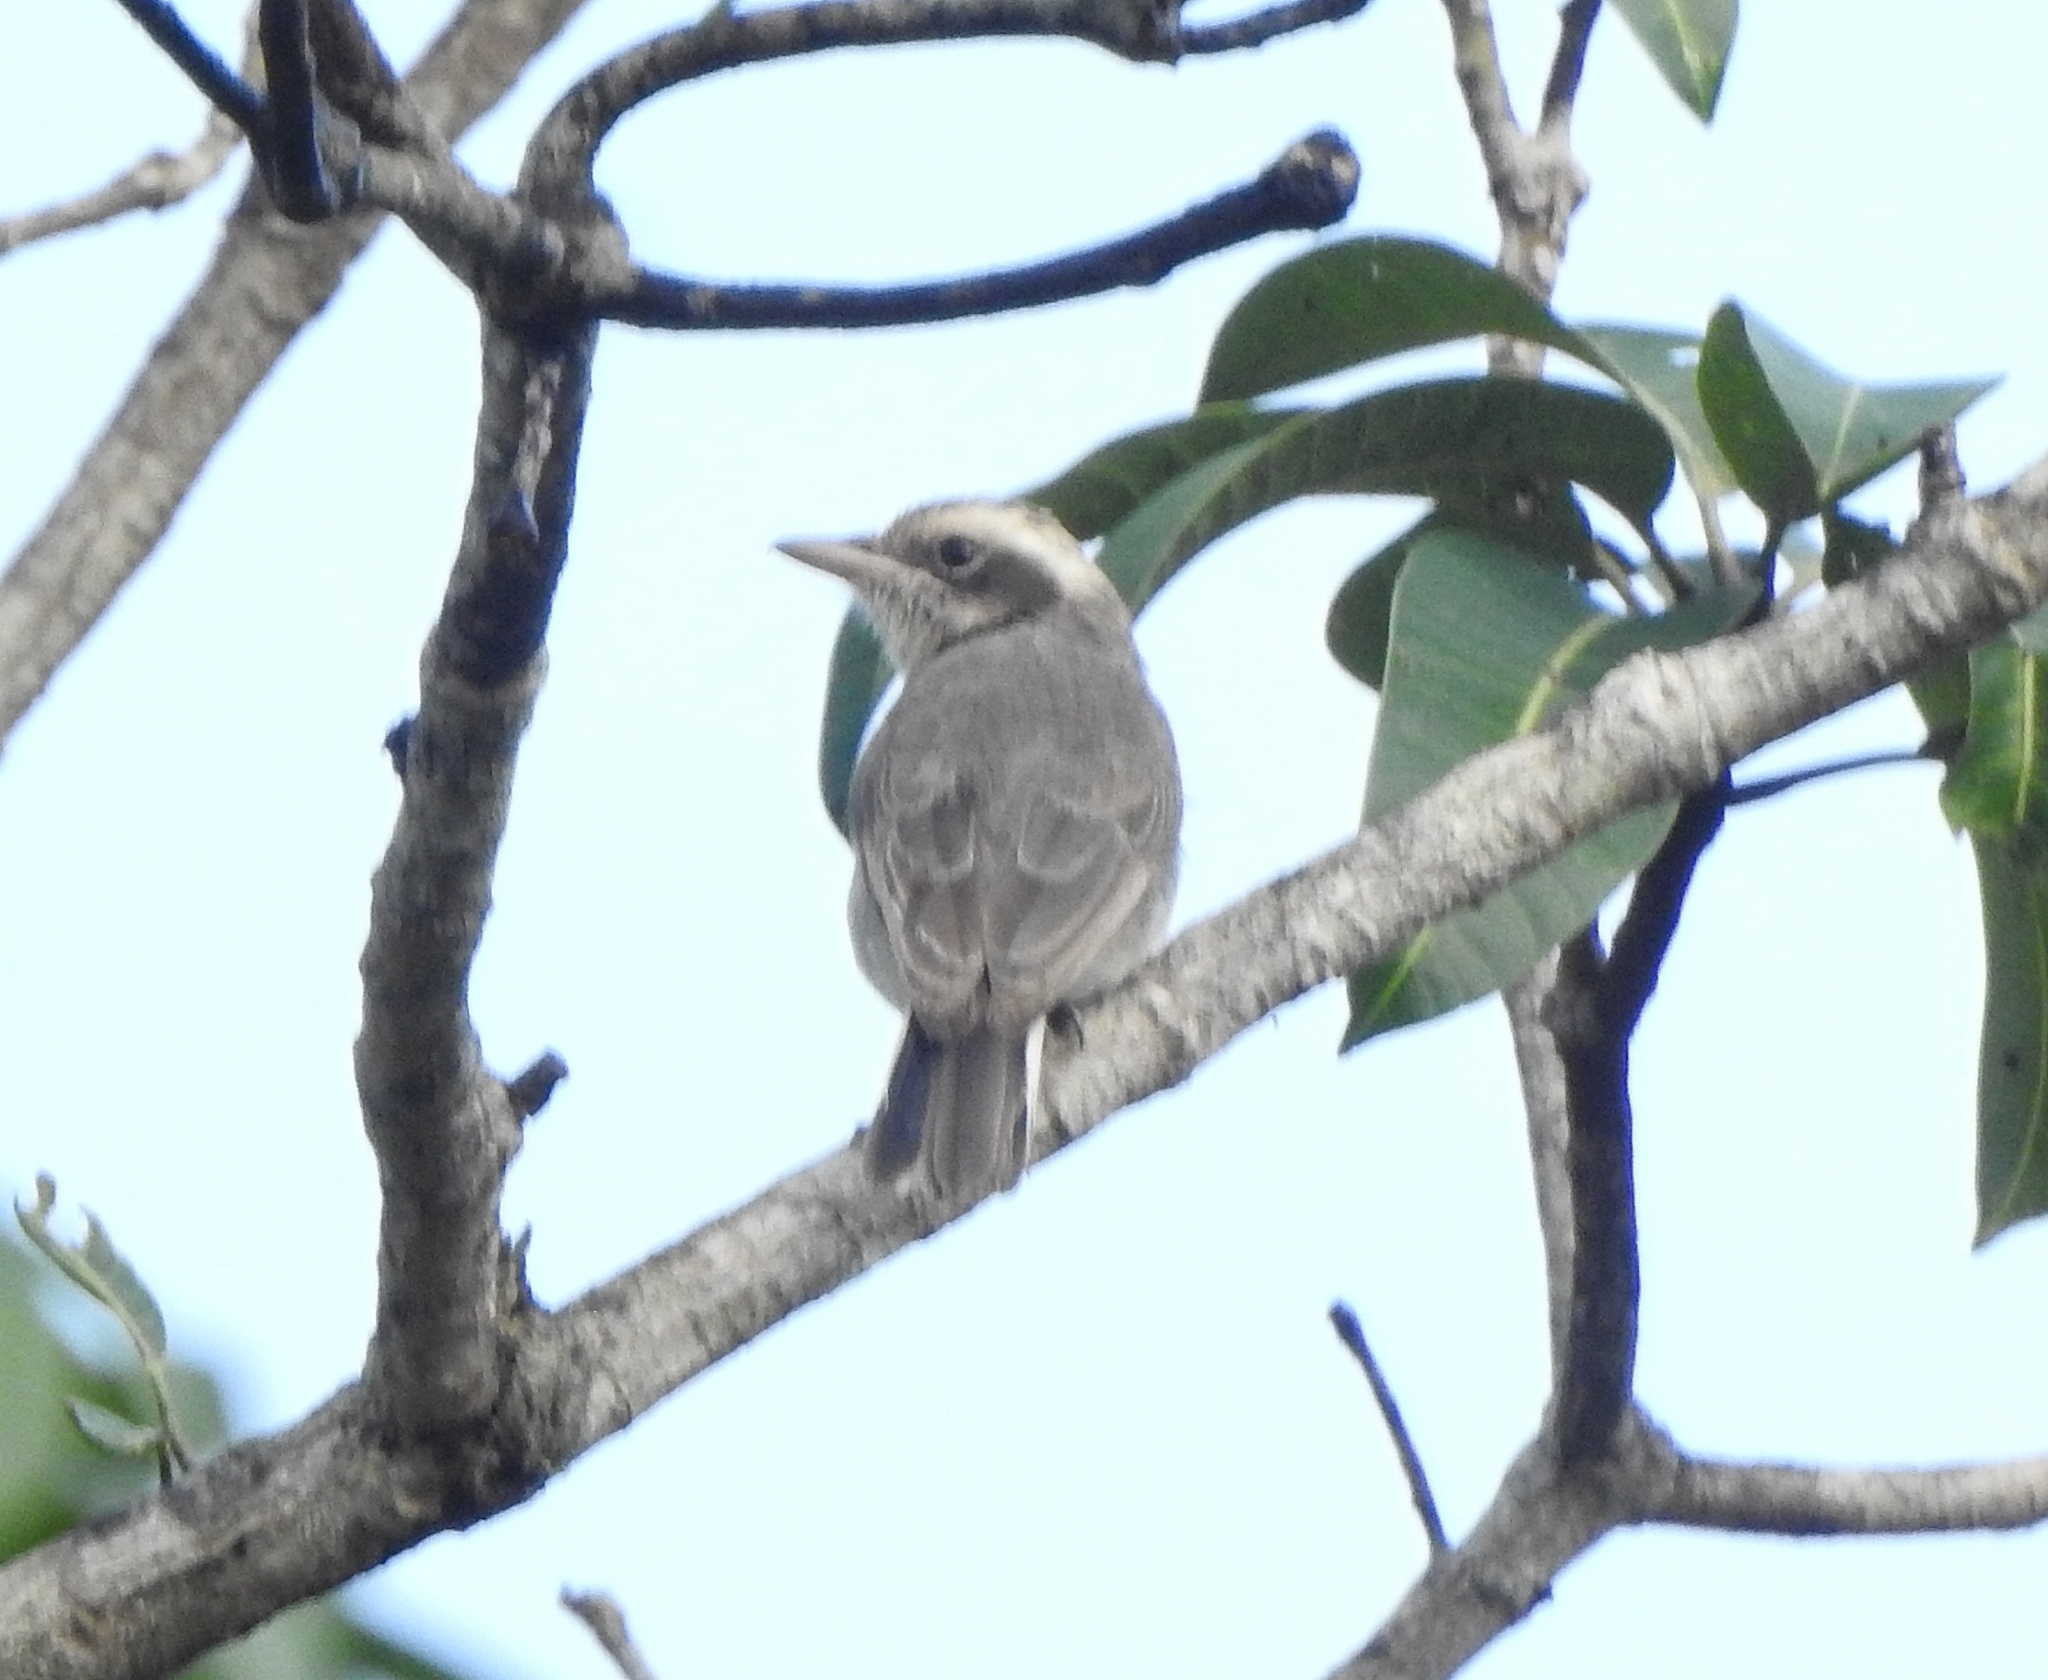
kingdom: Animalia
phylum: Chordata
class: Aves
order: Passeriformes
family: Tephrodornithidae
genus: Tephrodornis
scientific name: Tephrodornis pondicerianus
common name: Common woodshrike
